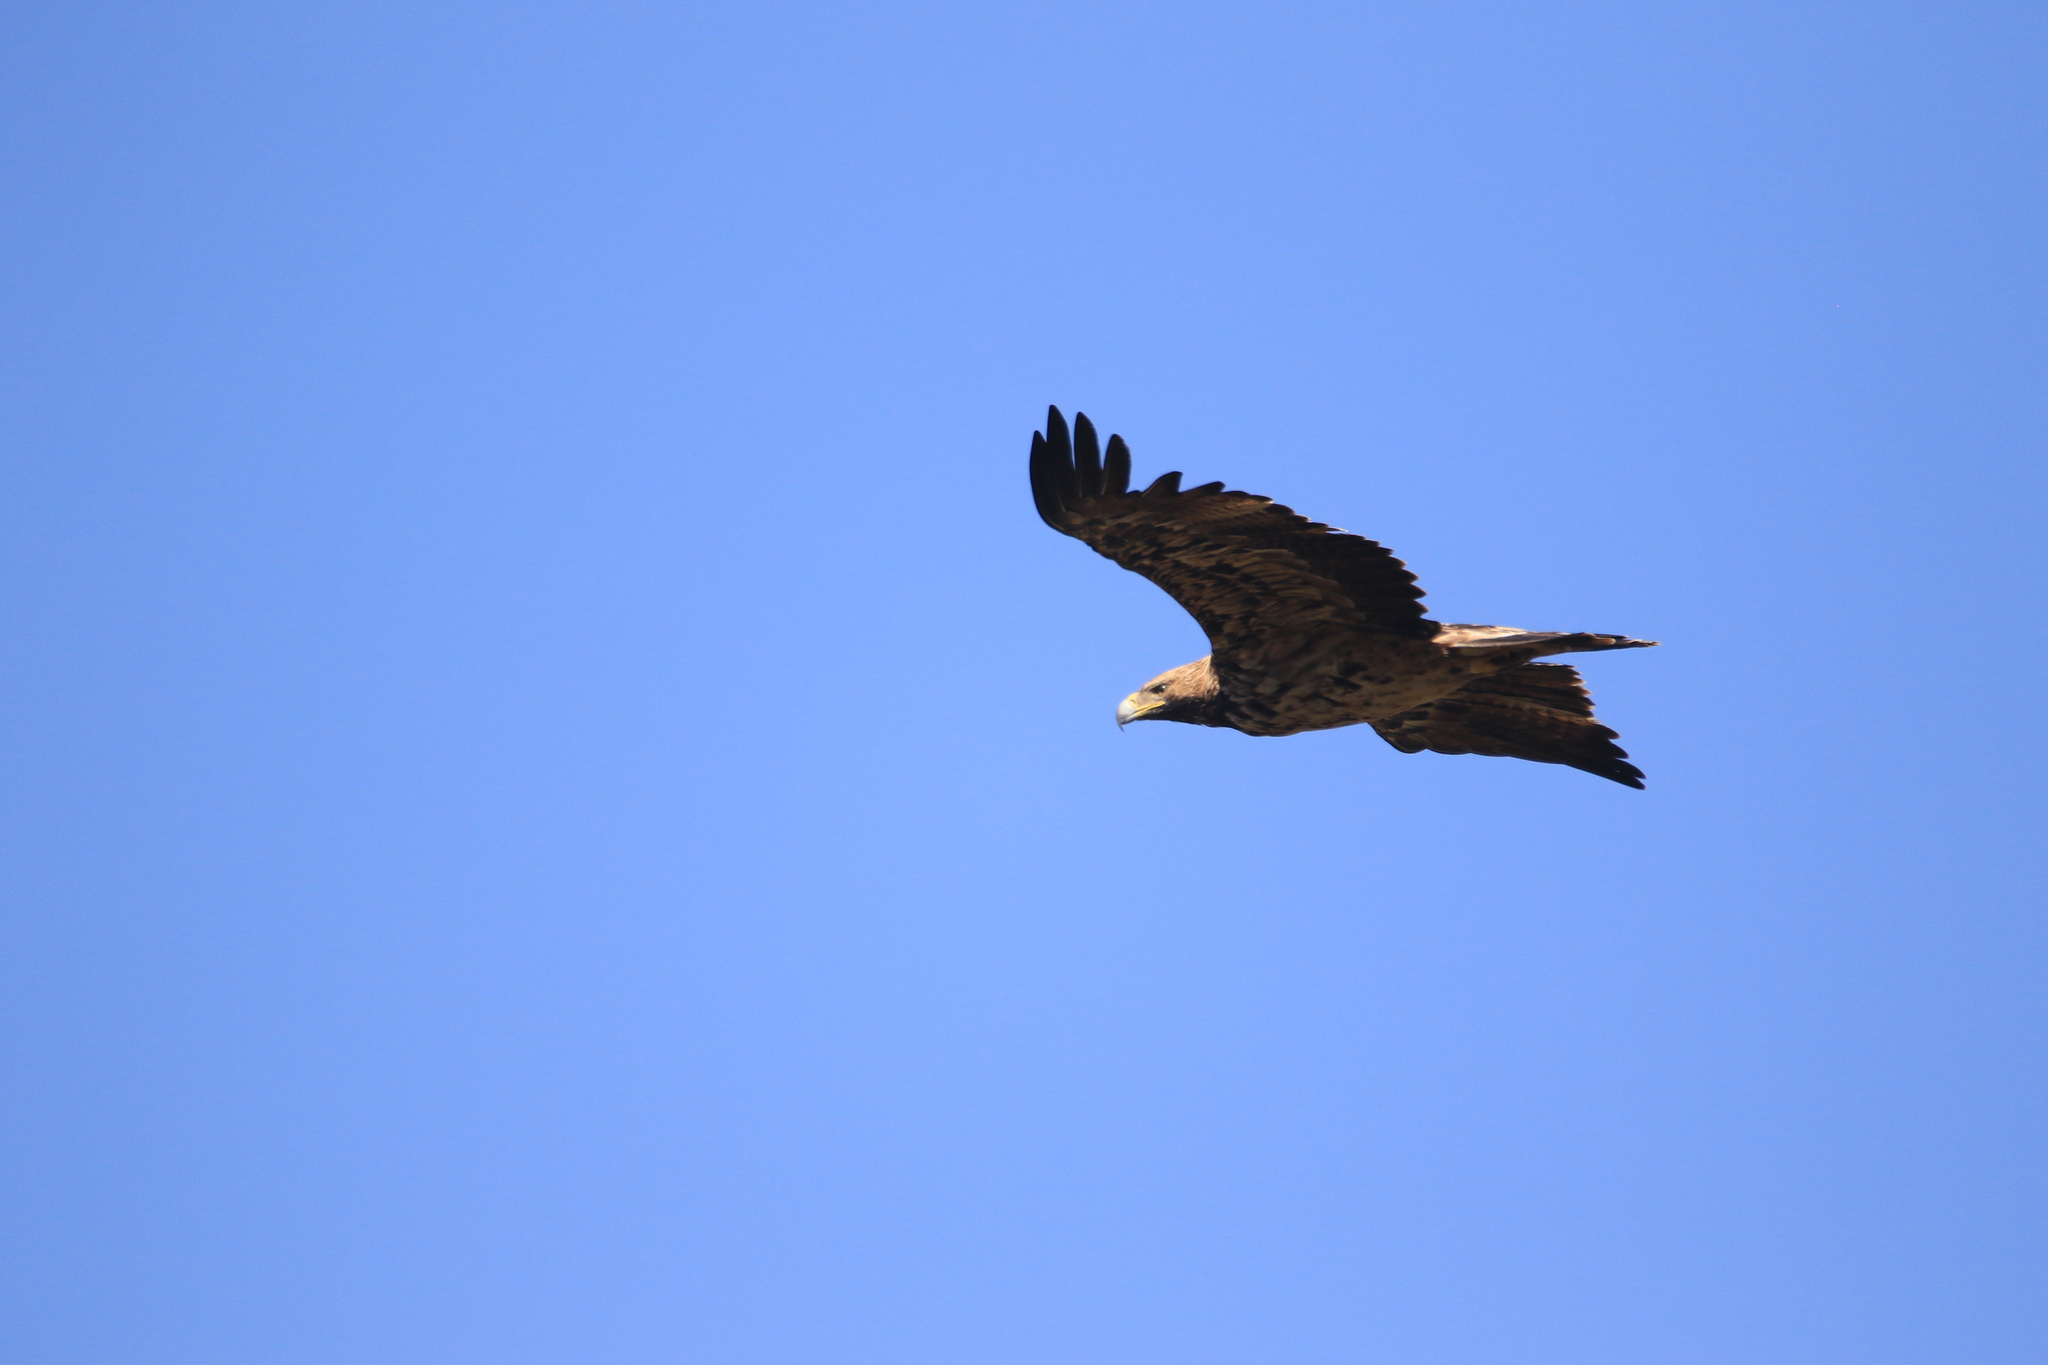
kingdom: Animalia
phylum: Chordata
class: Aves
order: Accipitriformes
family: Accipitridae
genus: Aquila
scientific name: Aquila heliaca
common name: Eastern imperial eagle
